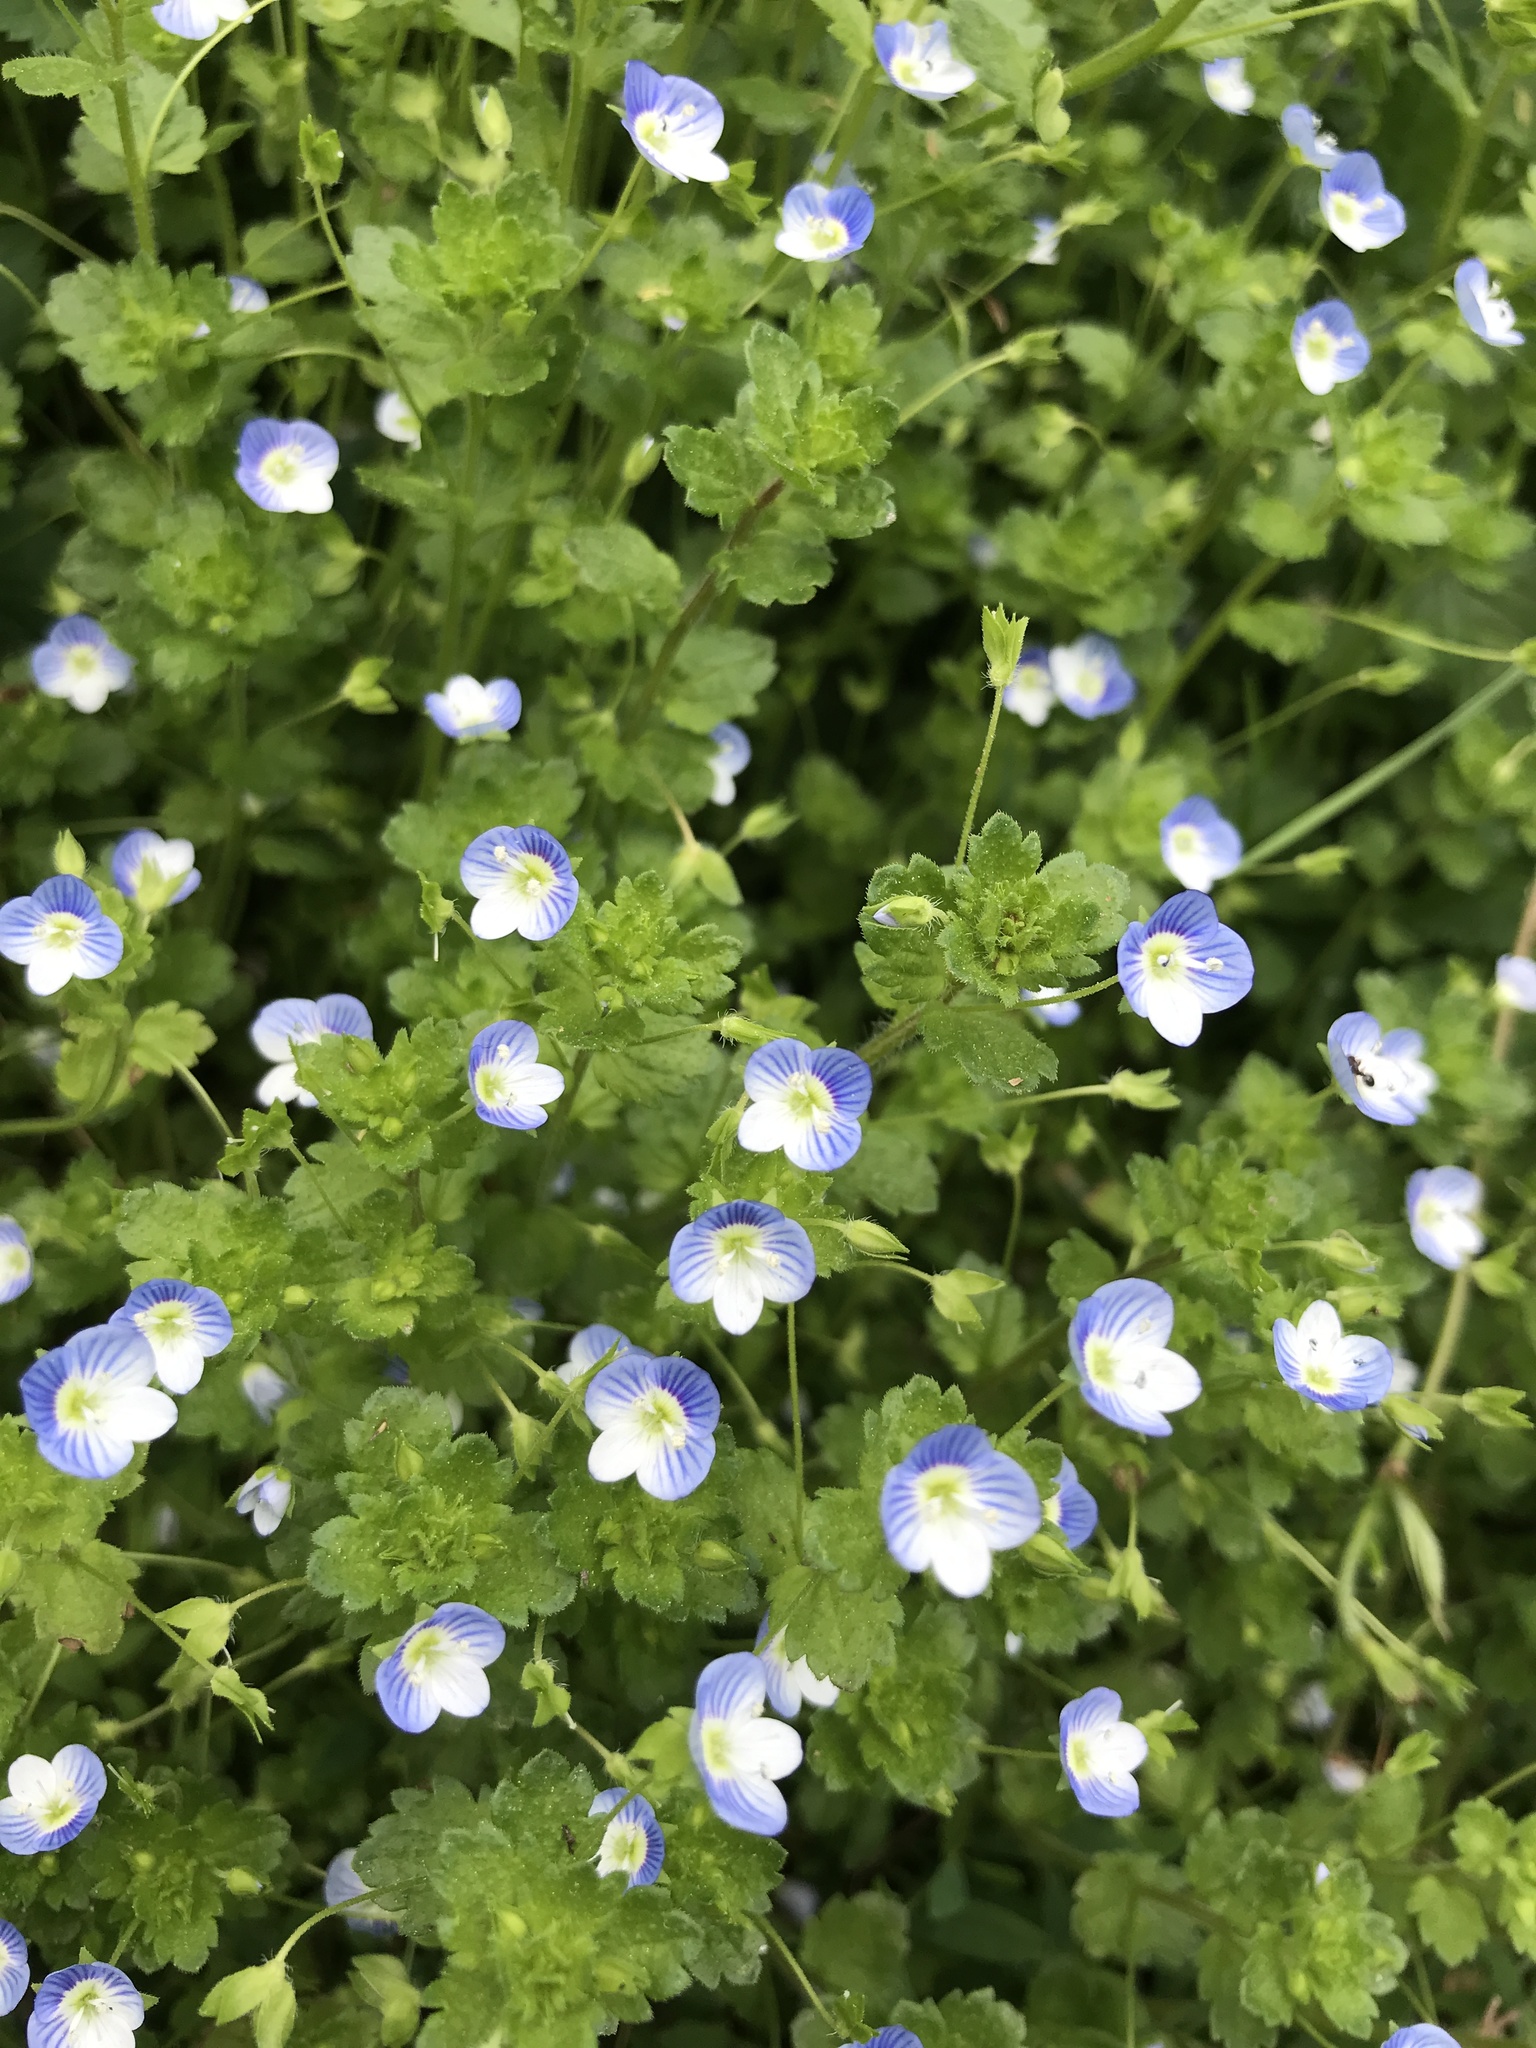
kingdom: Plantae
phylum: Tracheophyta
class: Magnoliopsida
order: Lamiales
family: Plantaginaceae
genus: Veronica
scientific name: Veronica persica
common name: Common field-speedwell
